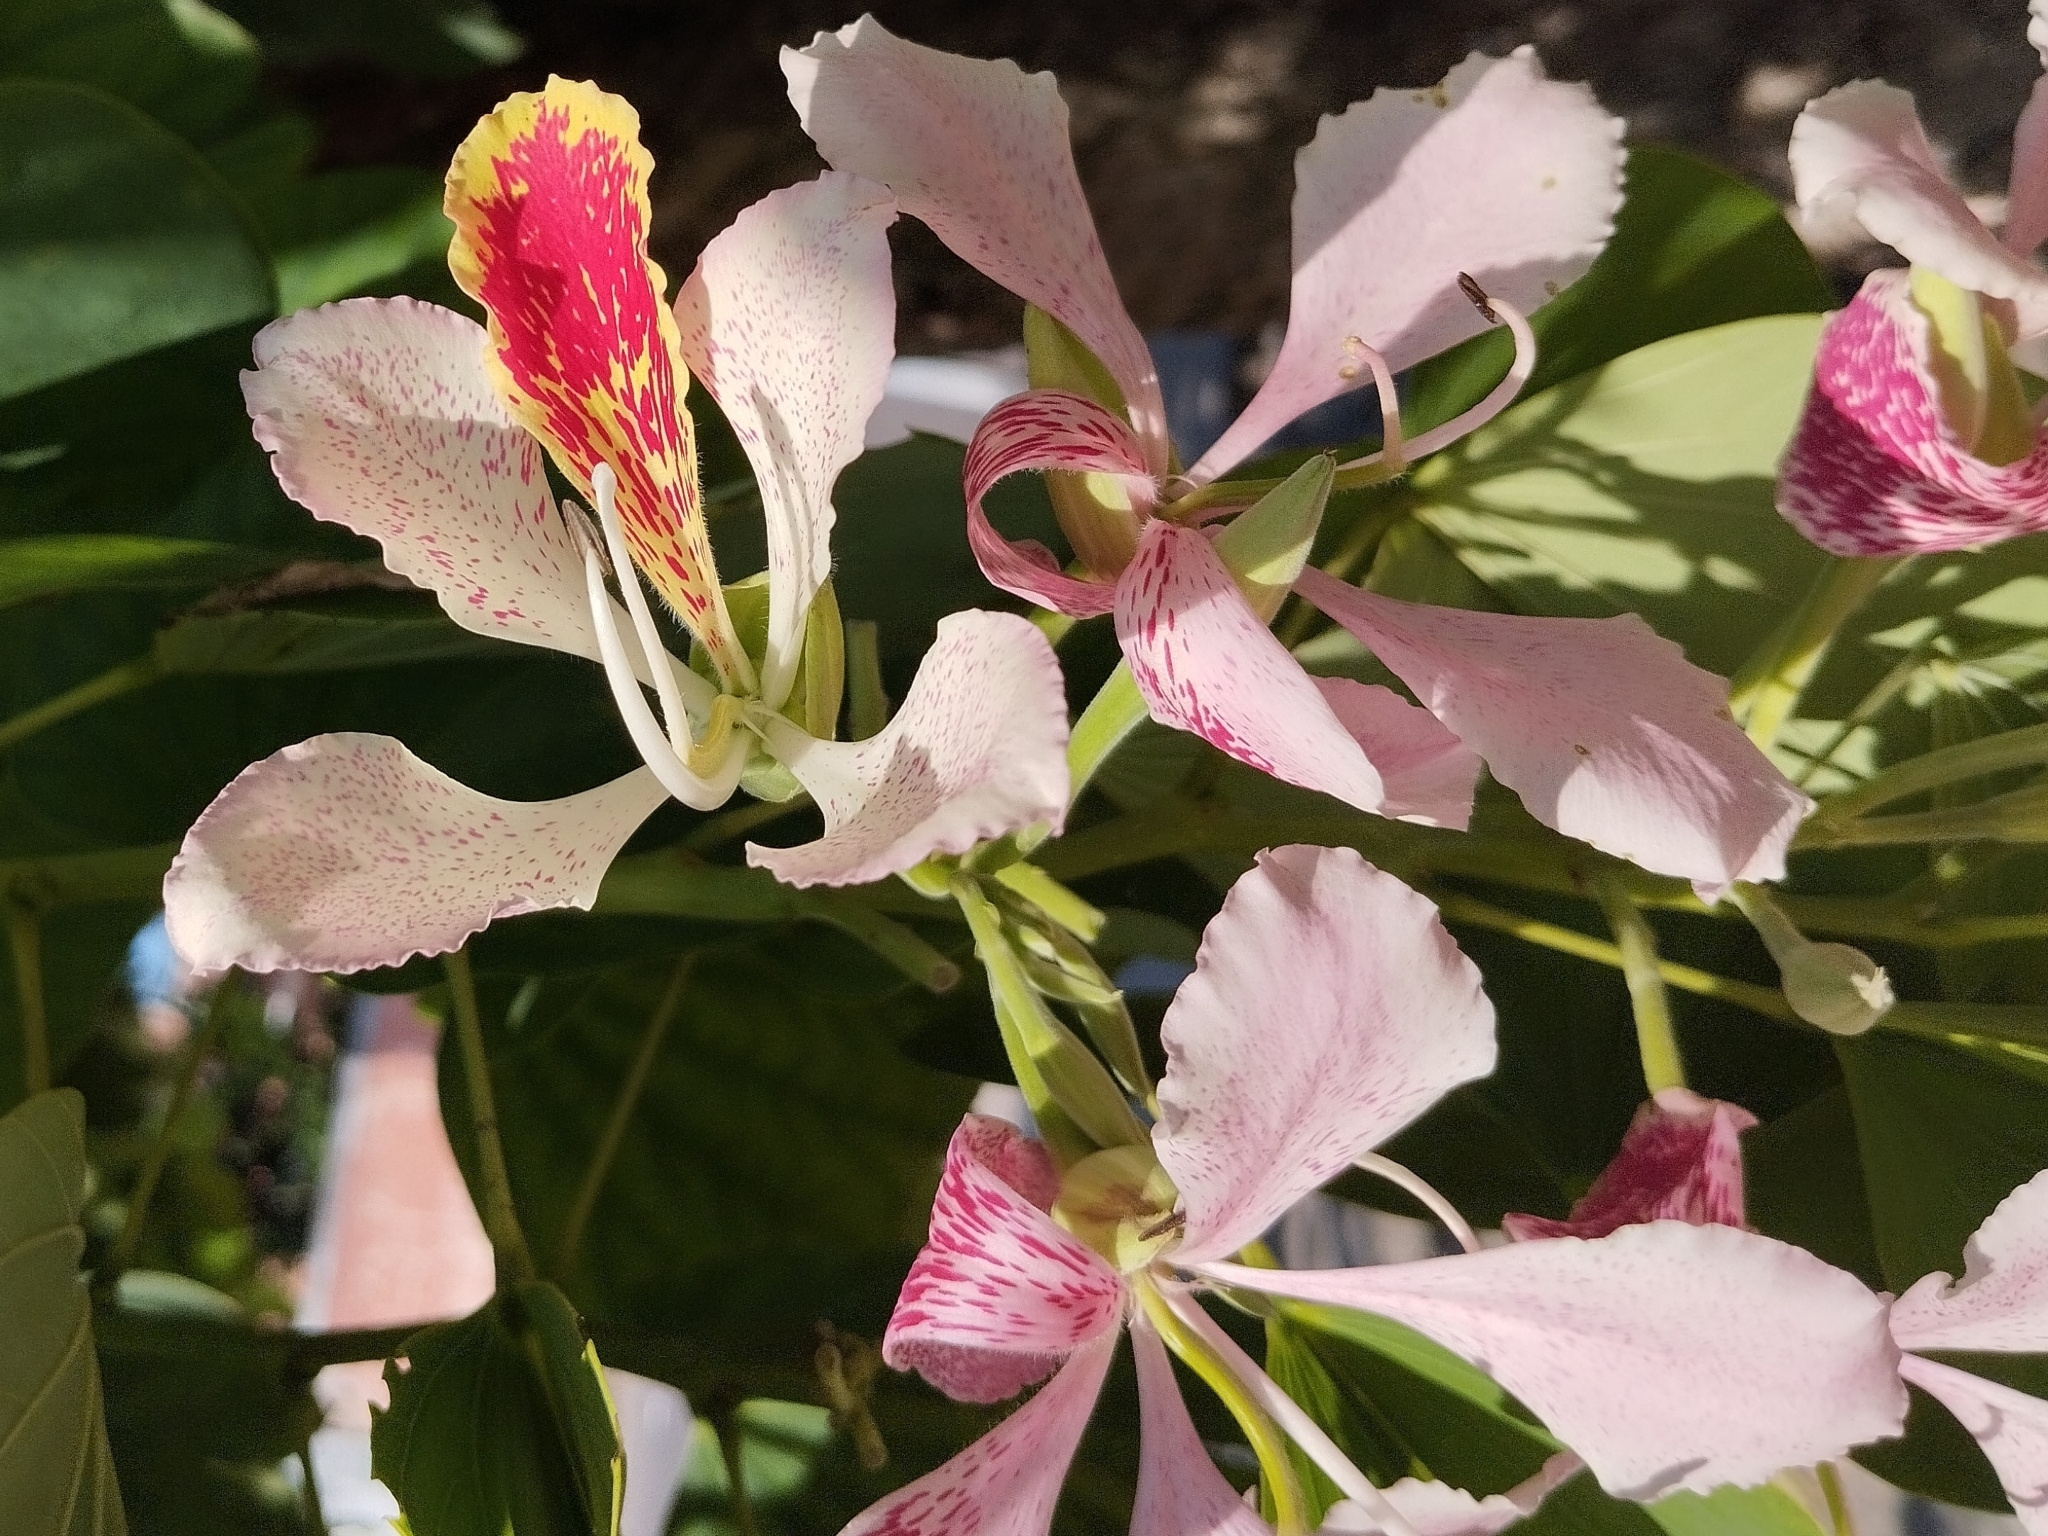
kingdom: Plantae
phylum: Tracheophyta
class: Magnoliopsida
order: Fabales
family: Fabaceae
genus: Bauhinia
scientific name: Bauhinia monandra
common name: Napoleon's plume
